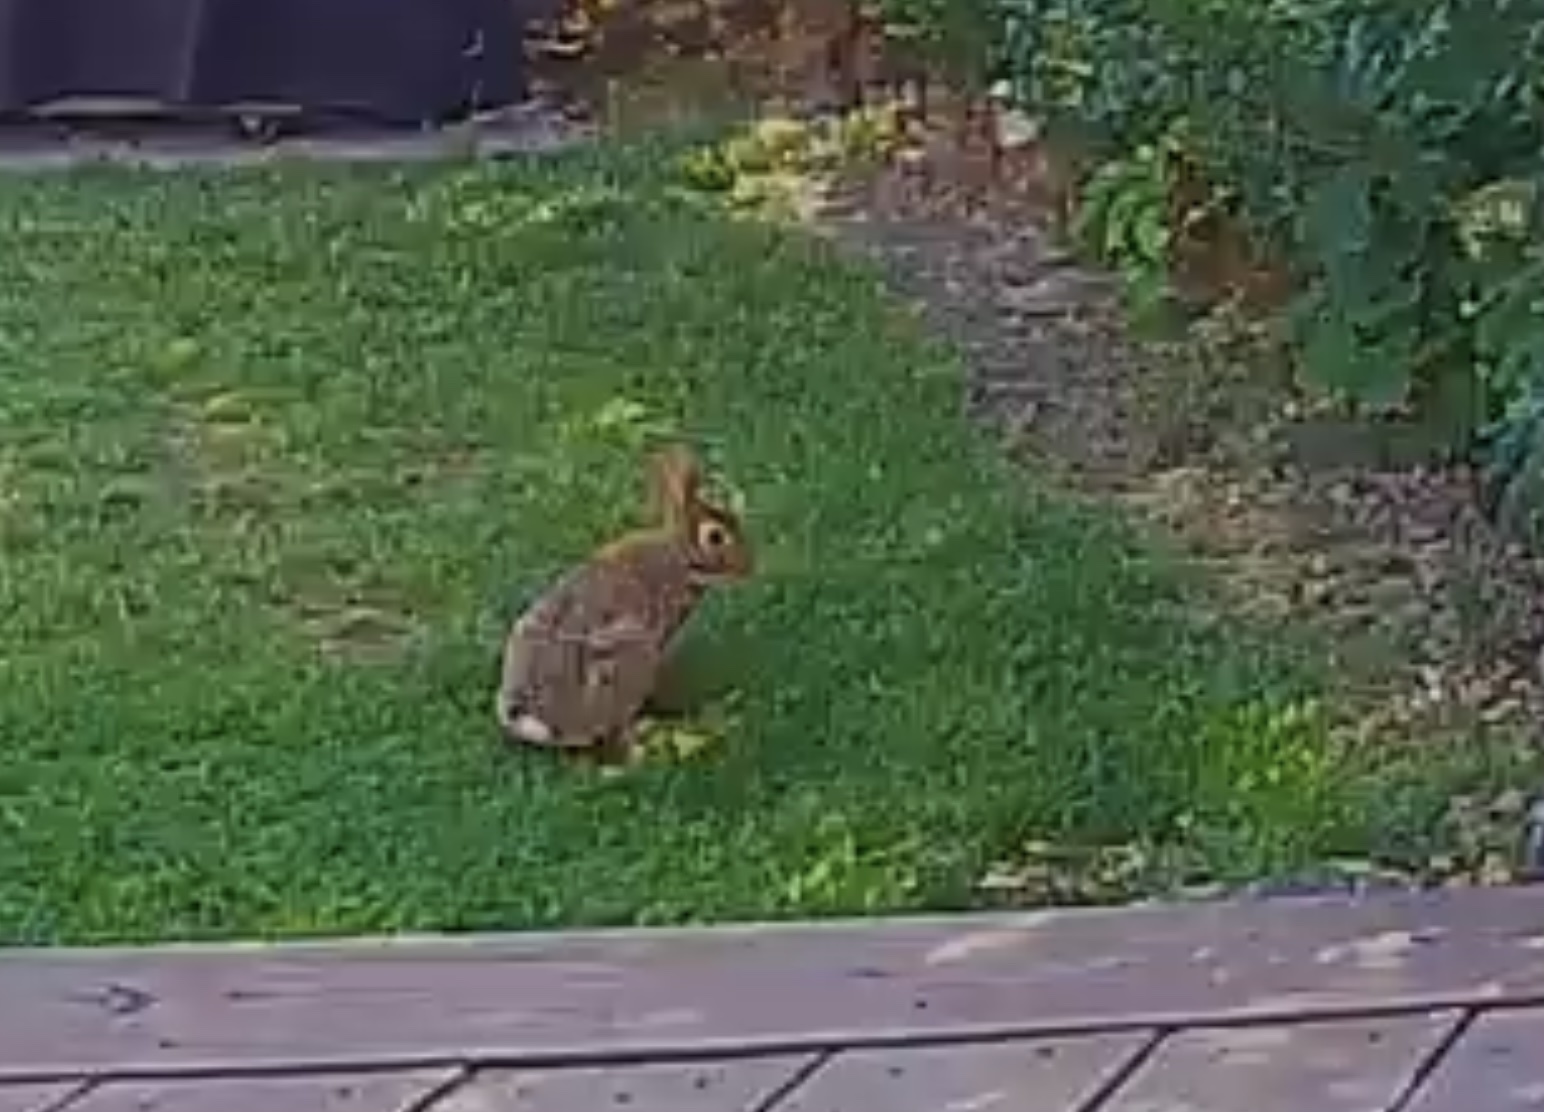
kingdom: Animalia
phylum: Chordata
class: Mammalia
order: Lagomorpha
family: Leporidae
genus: Sylvilagus
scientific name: Sylvilagus floridanus
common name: Eastern cottontail
